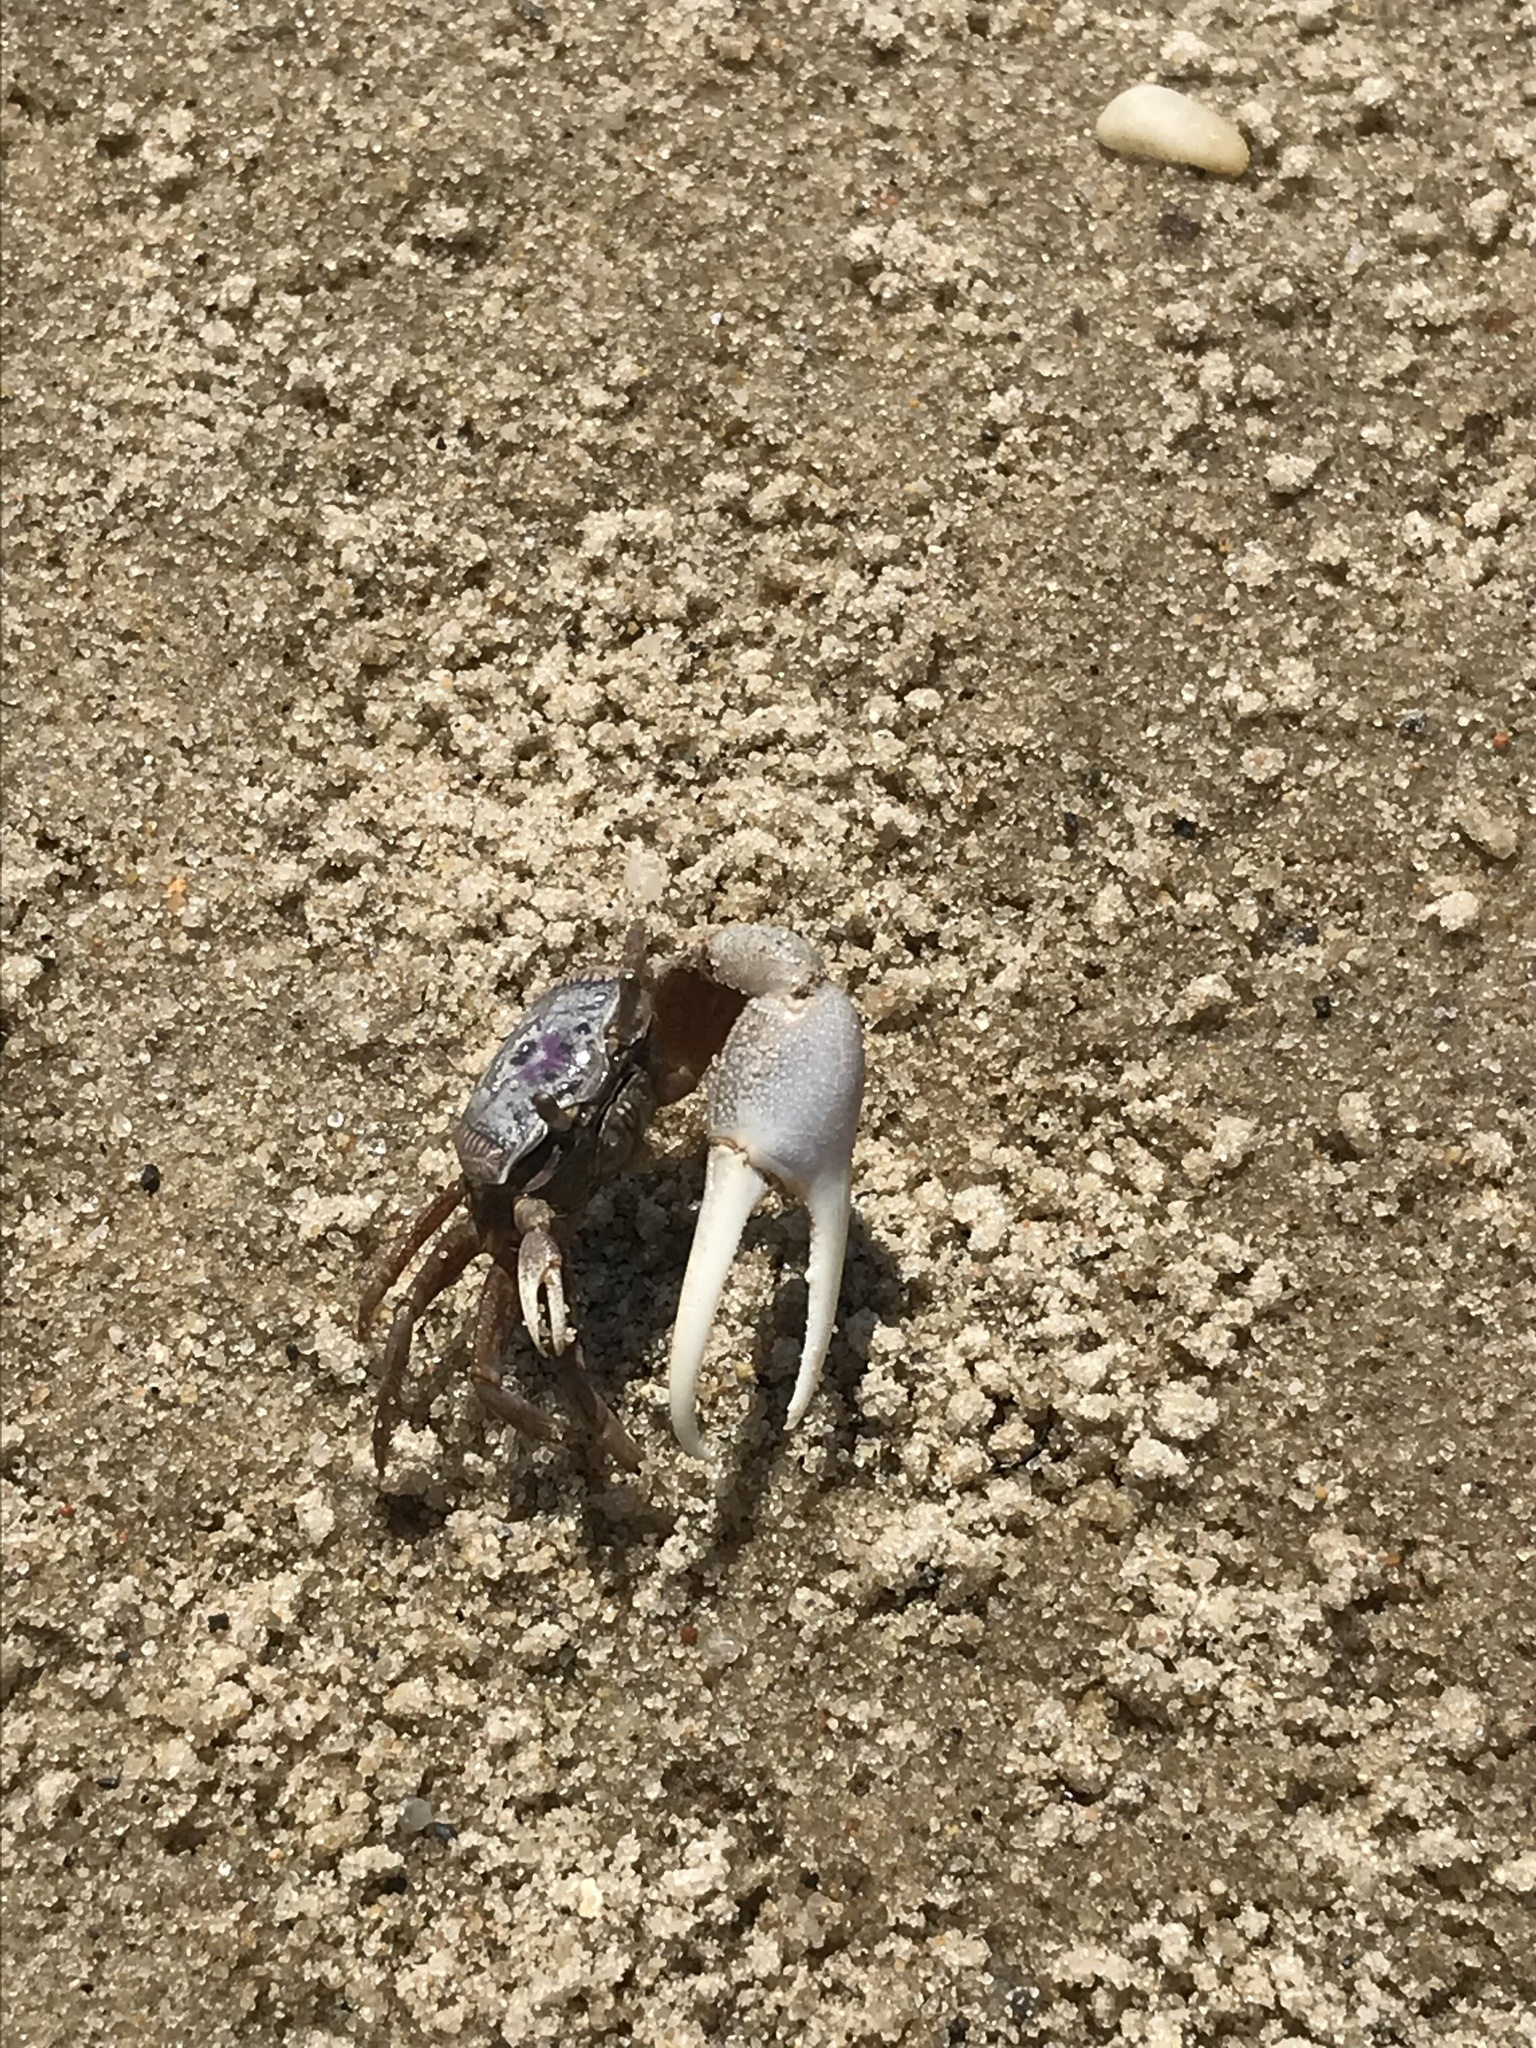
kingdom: Animalia
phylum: Arthropoda
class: Malacostraca
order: Decapoda
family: Ocypodidae
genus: Leptuca
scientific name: Leptuca pugilator
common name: Atlantic sand fiddler crab
